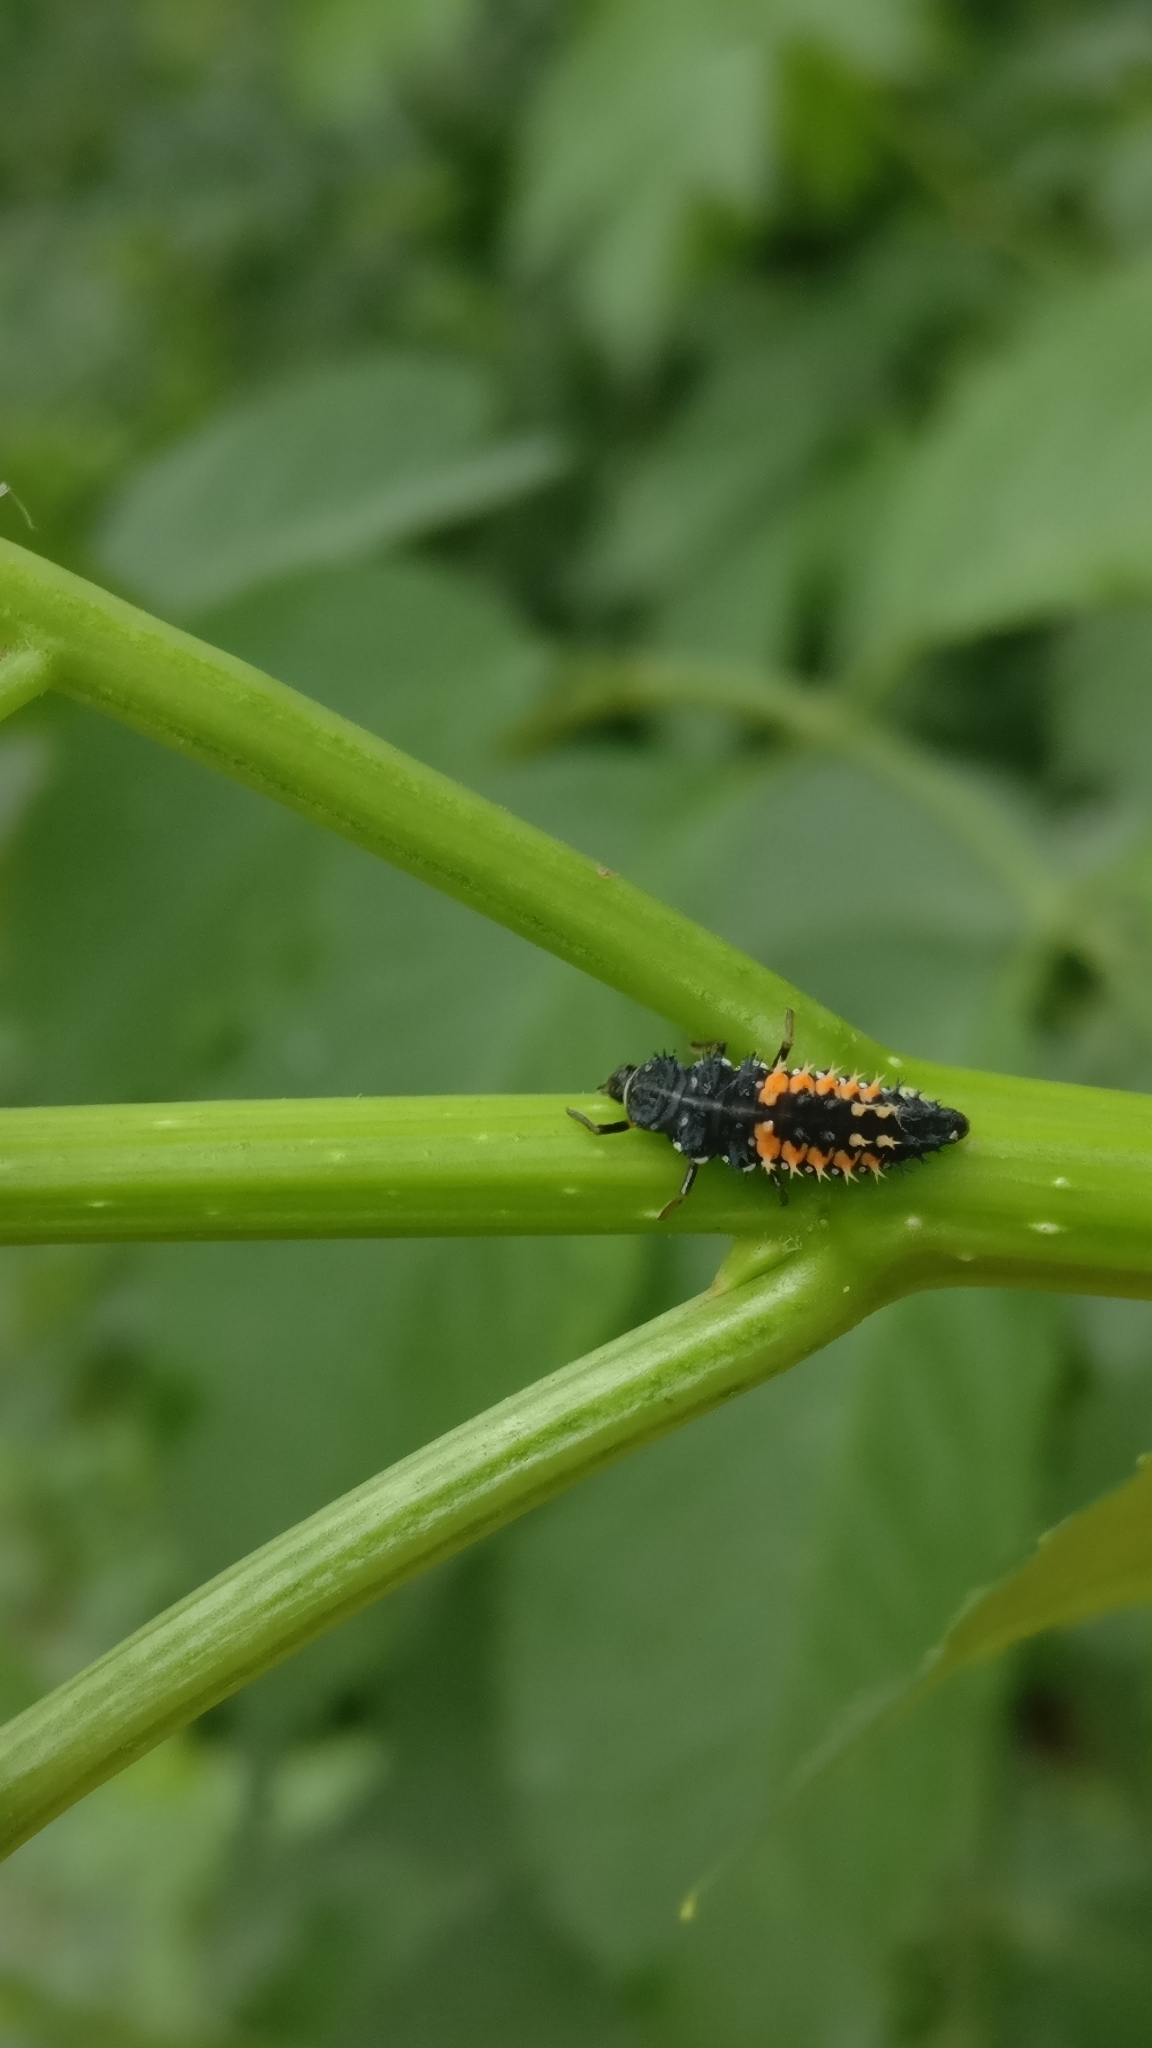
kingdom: Animalia
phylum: Arthropoda
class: Insecta
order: Coleoptera
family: Coccinellidae
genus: Harmonia
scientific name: Harmonia axyridis
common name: Harlequin ladybird
